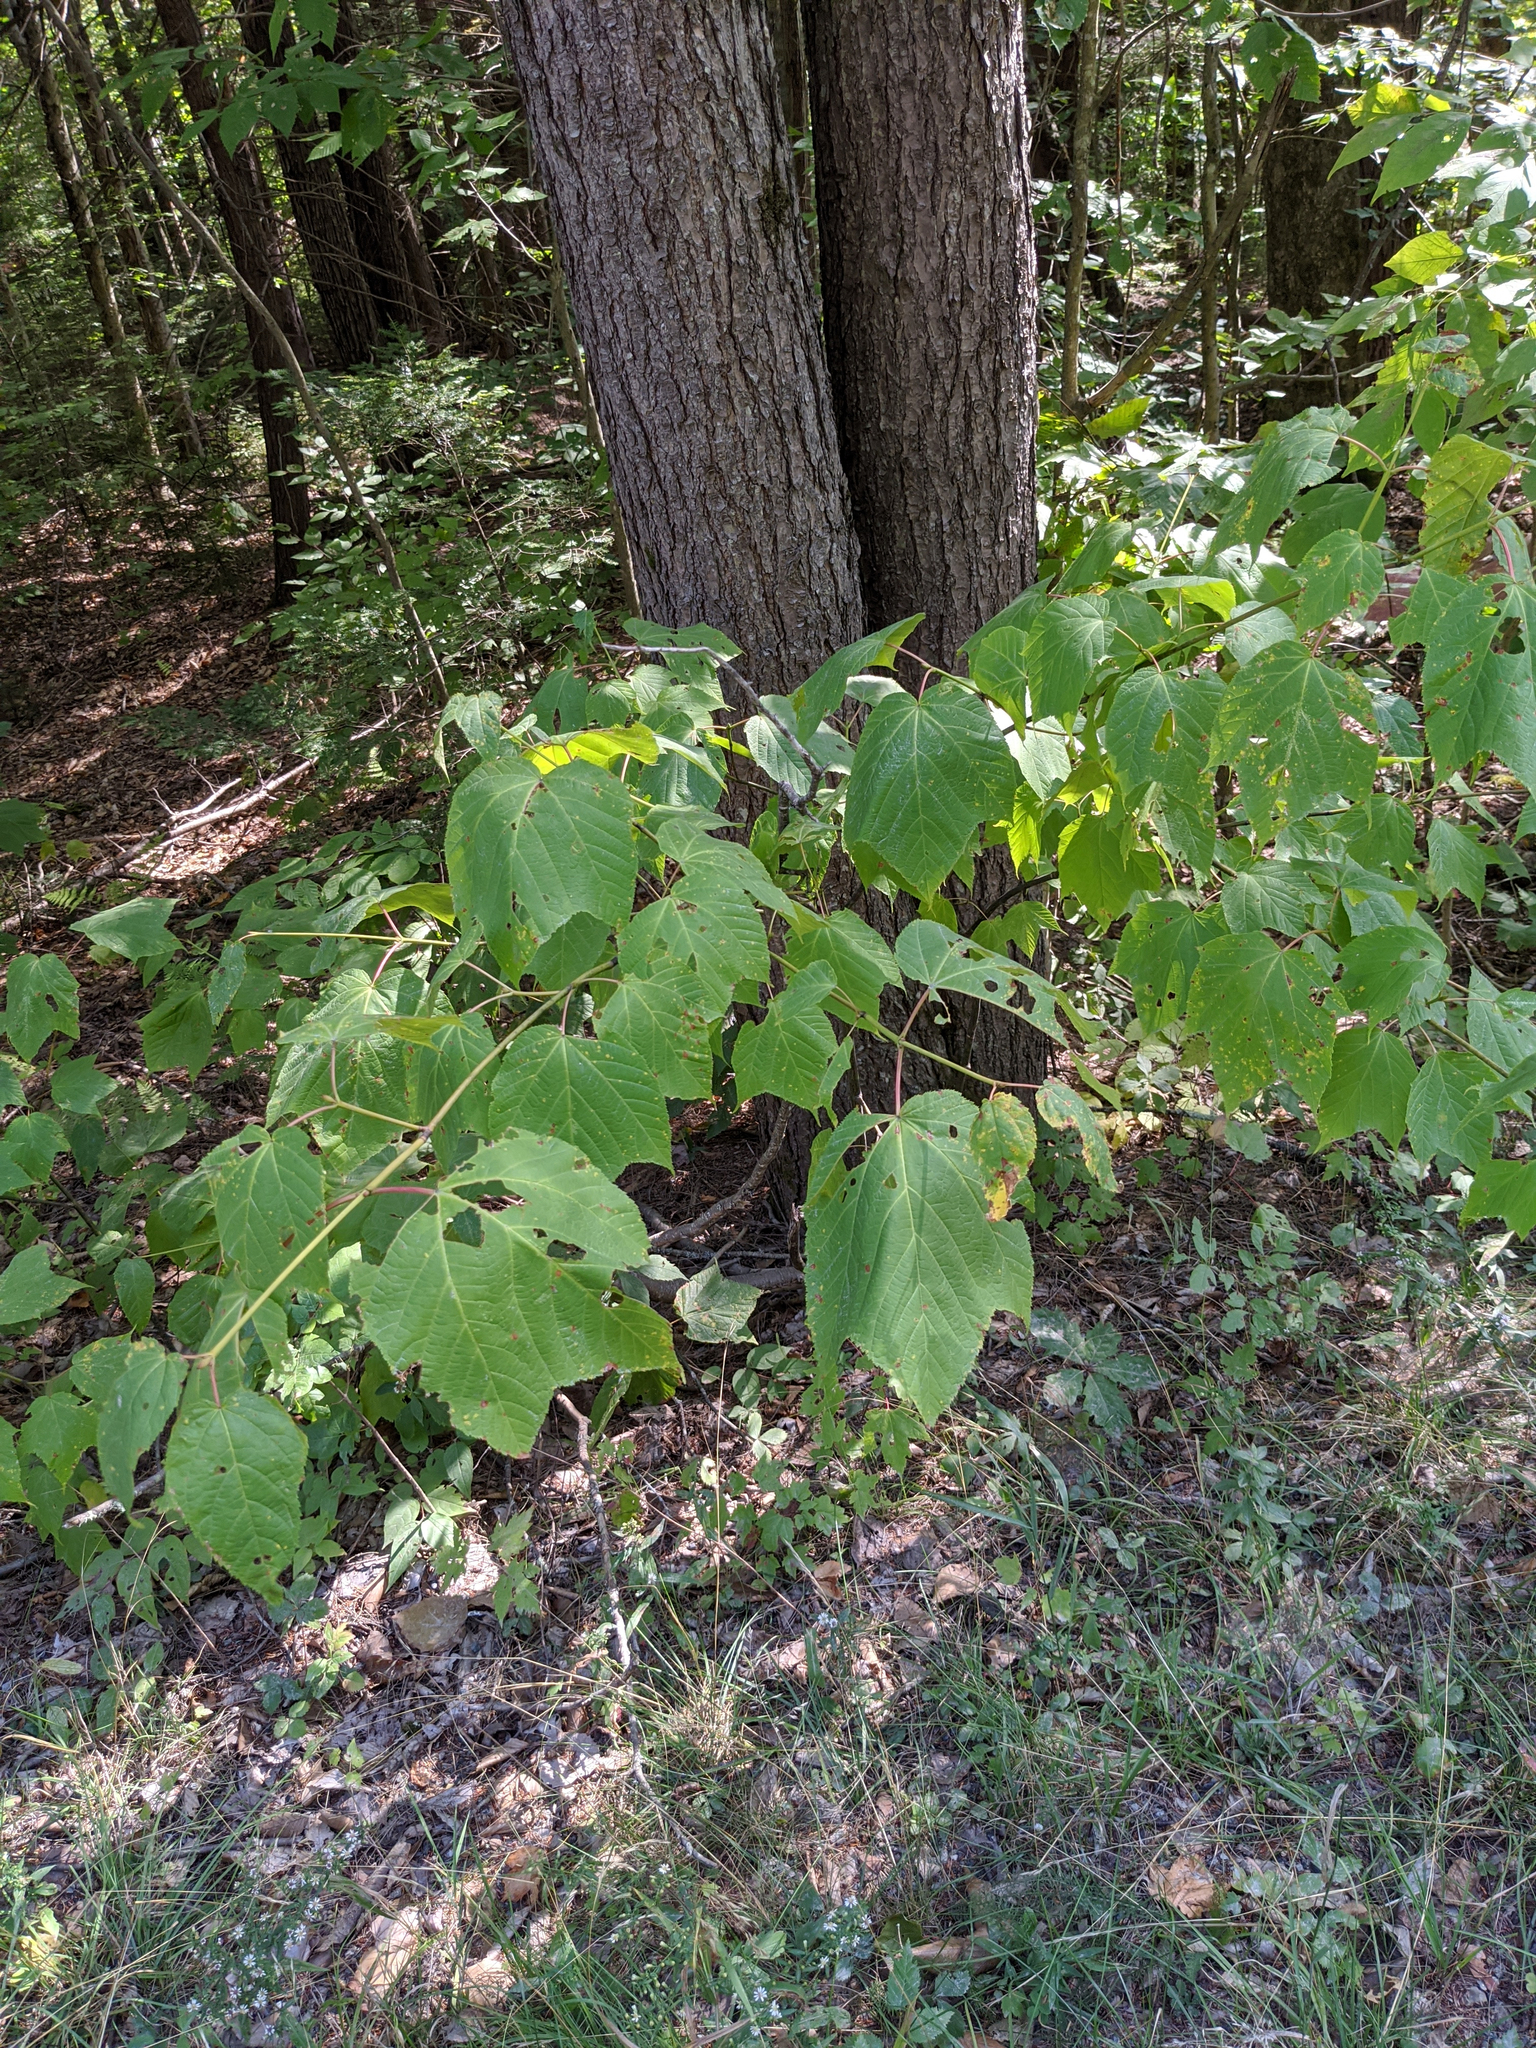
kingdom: Plantae
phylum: Tracheophyta
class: Magnoliopsida
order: Sapindales
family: Sapindaceae
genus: Acer
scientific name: Acer pensylvanicum
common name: Moosewood
